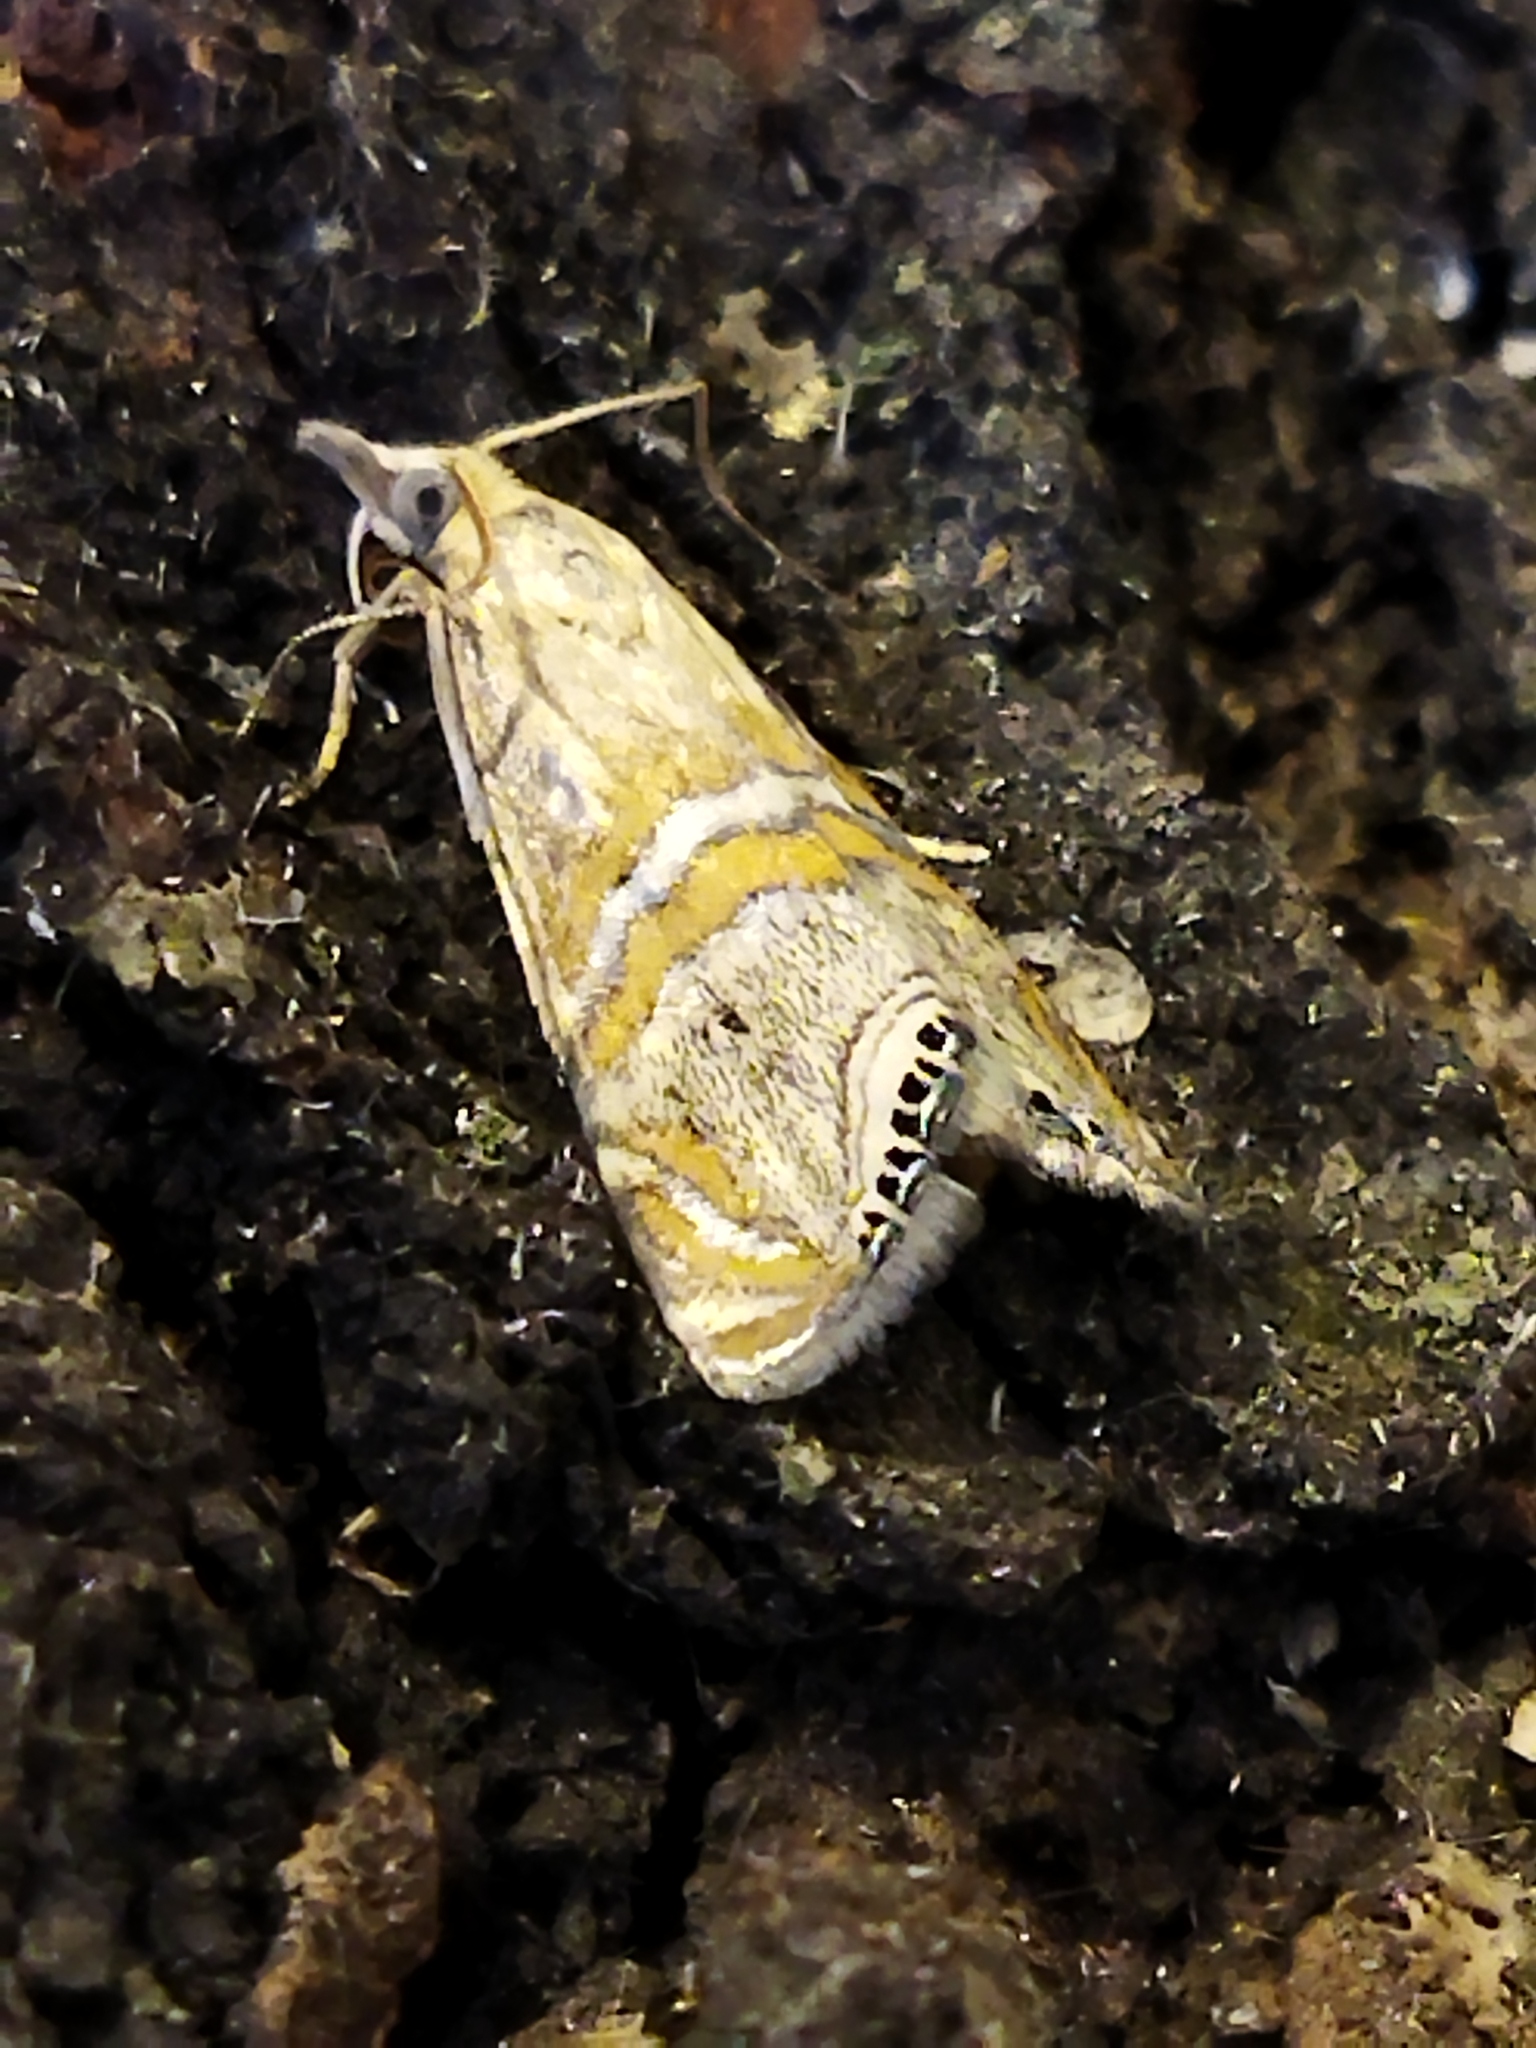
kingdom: Animalia
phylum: Arthropoda
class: Insecta
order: Lepidoptera
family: Crambidae
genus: Euchromius
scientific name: Euchromius bella
